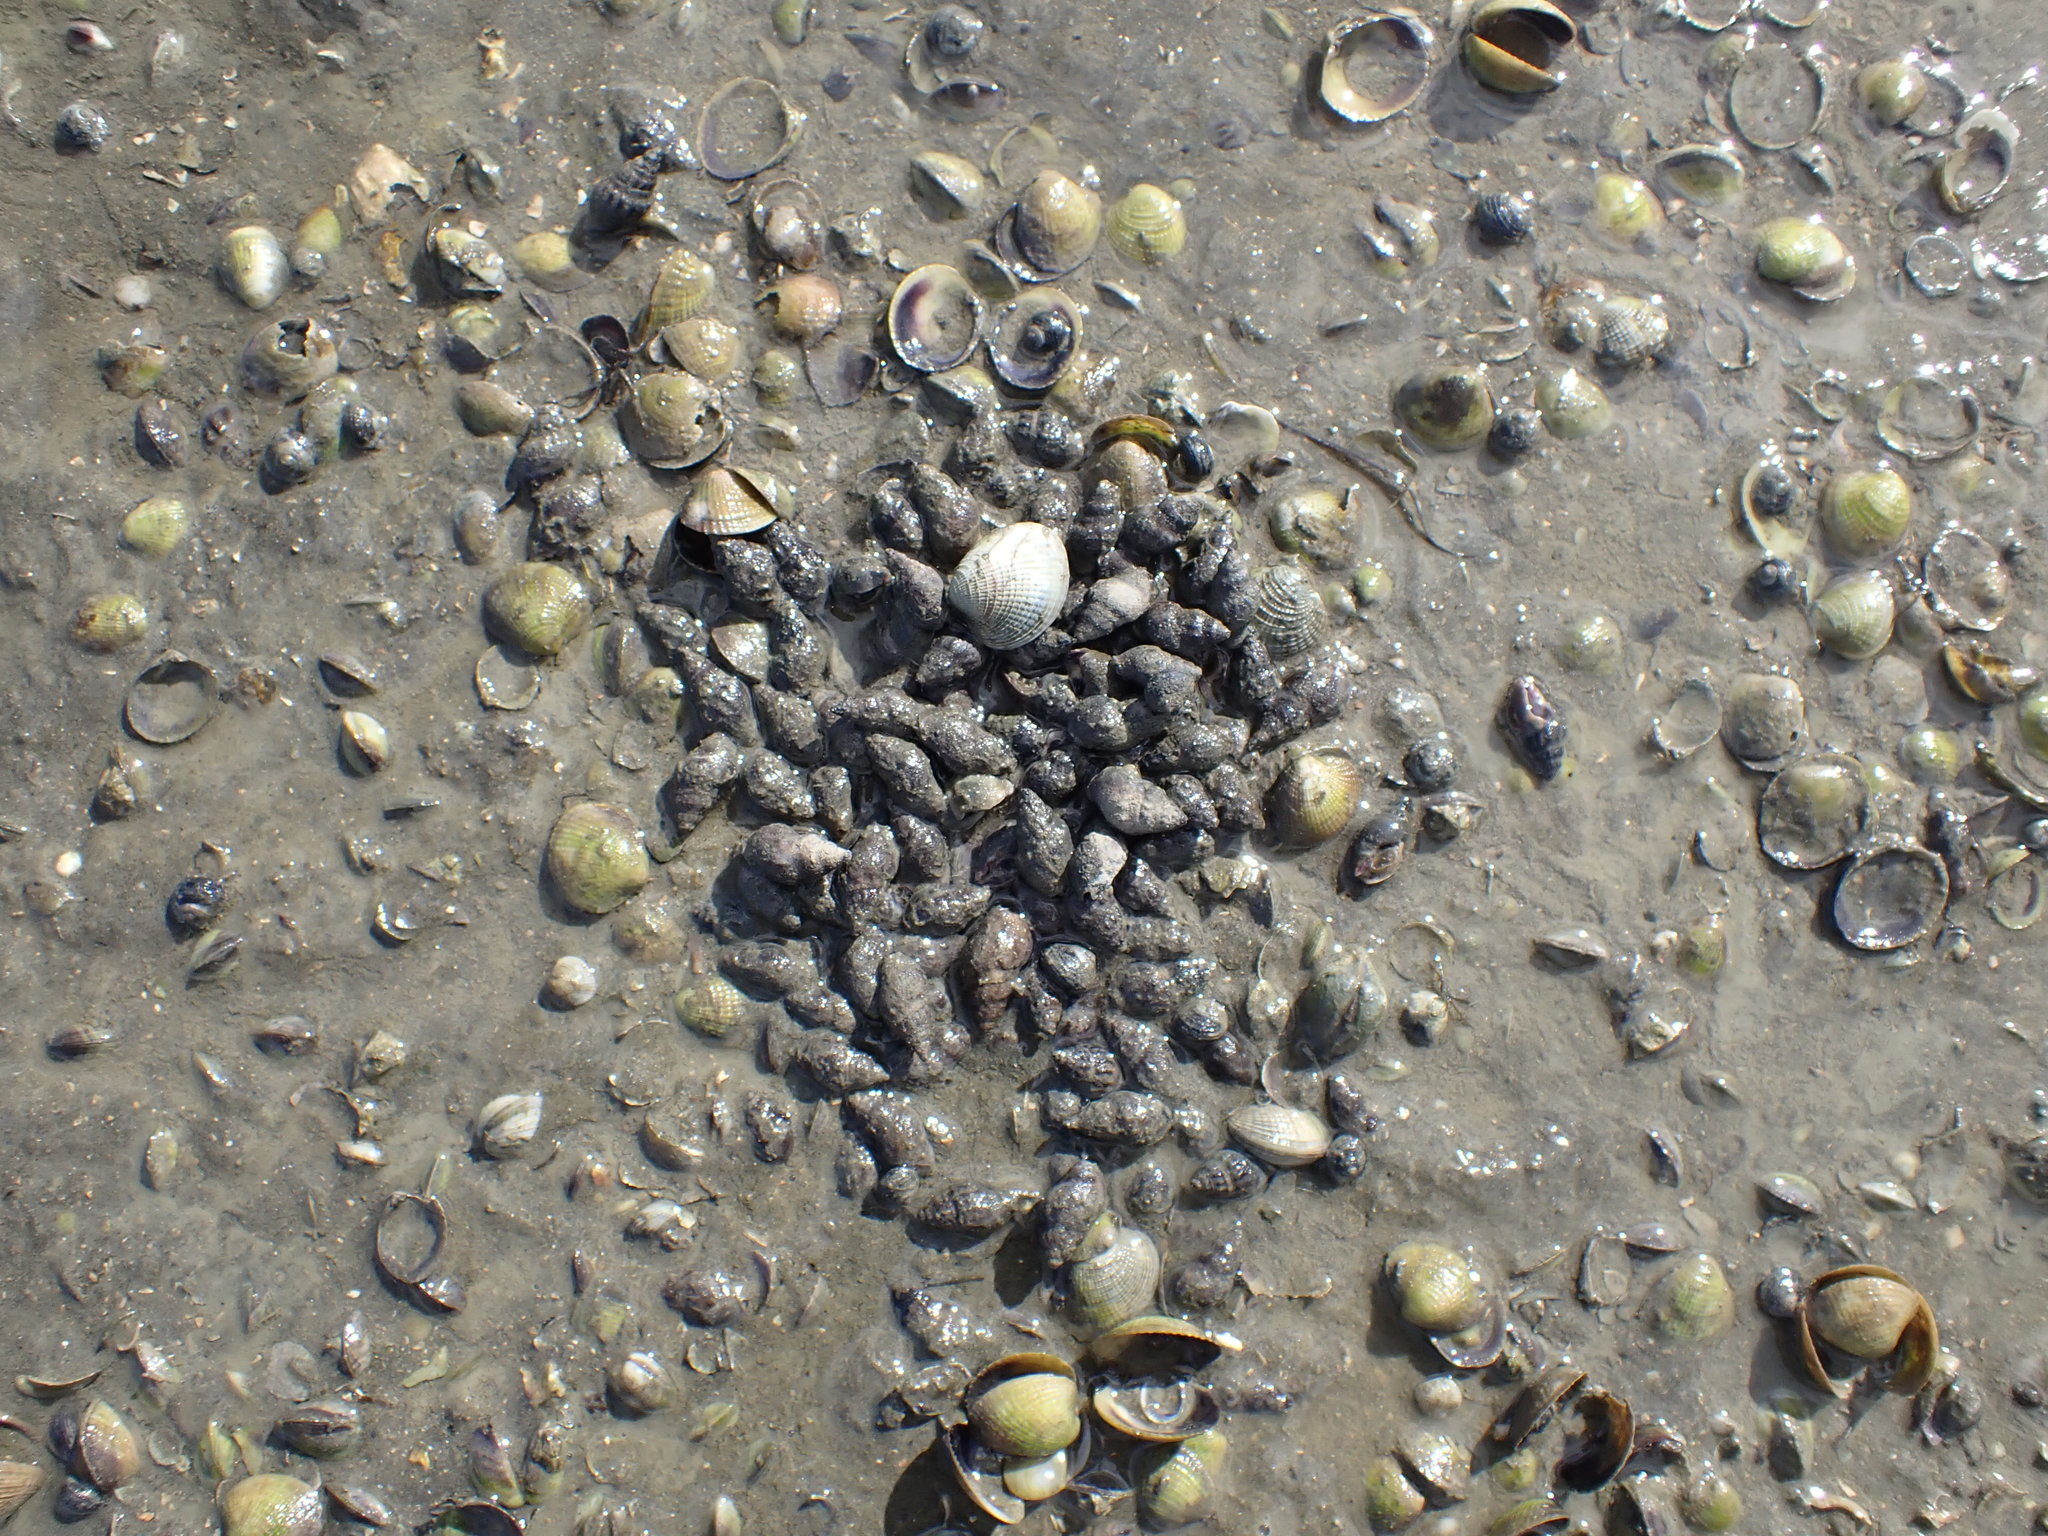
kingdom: Animalia
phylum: Mollusca
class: Gastropoda
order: Neogastropoda
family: Cominellidae
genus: Cominella
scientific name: Cominella glandiformis
